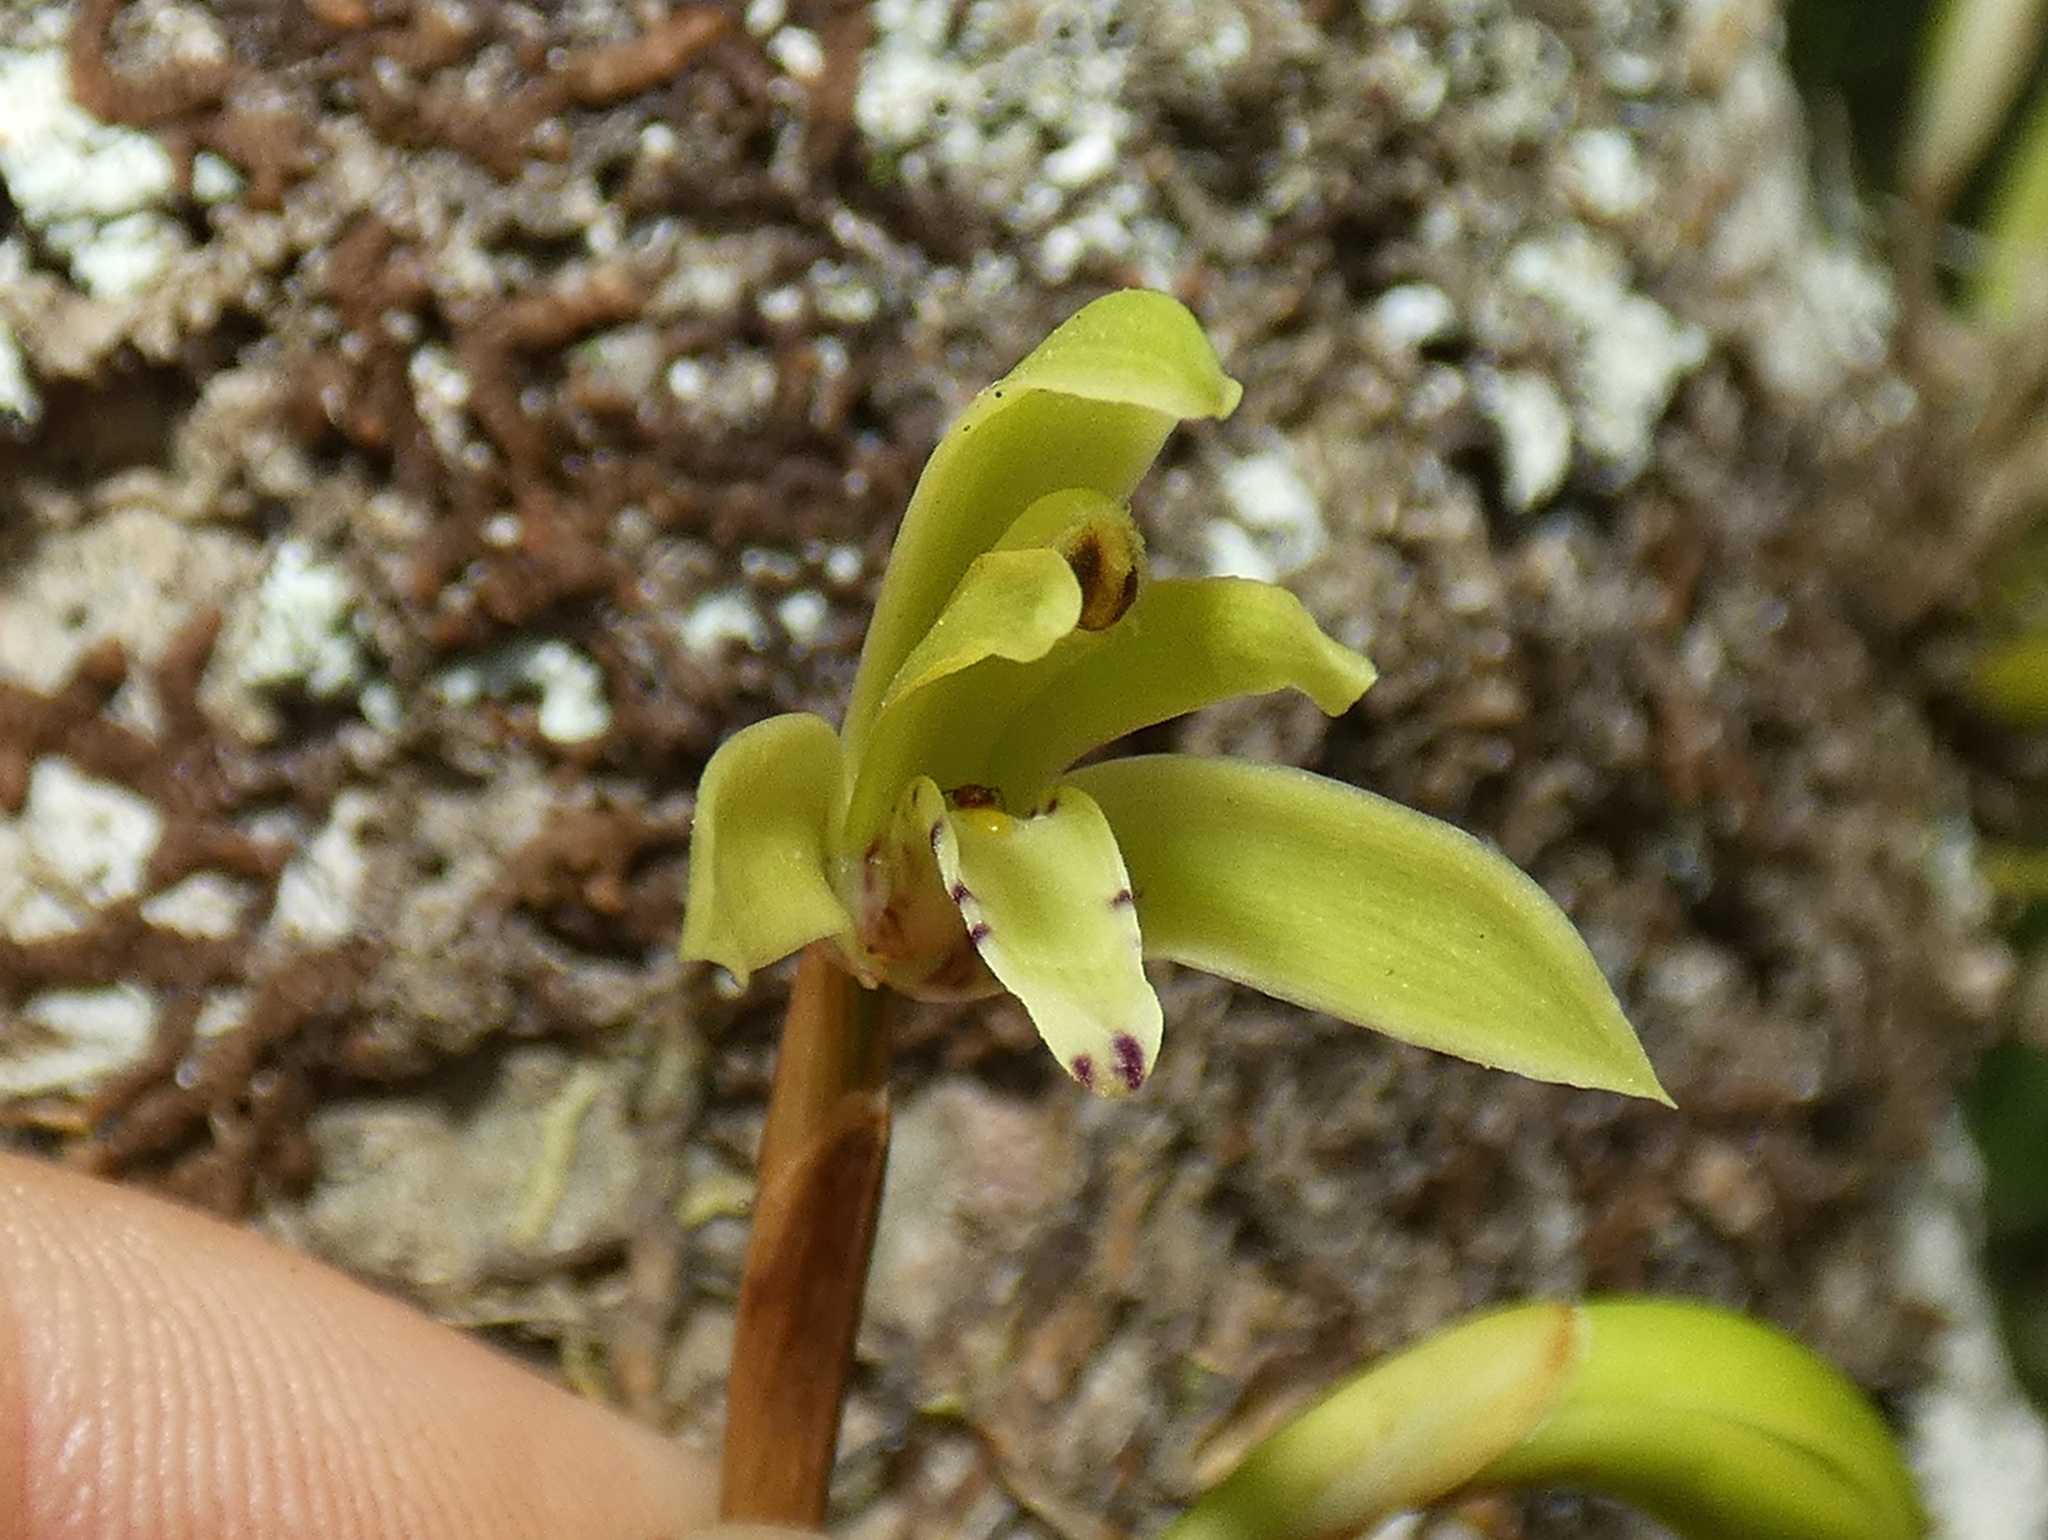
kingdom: Plantae
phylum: Tracheophyta
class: Liliopsida
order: Asparagales
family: Orchidaceae
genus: Maxillaria
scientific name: Maxillaria scorpioidea
